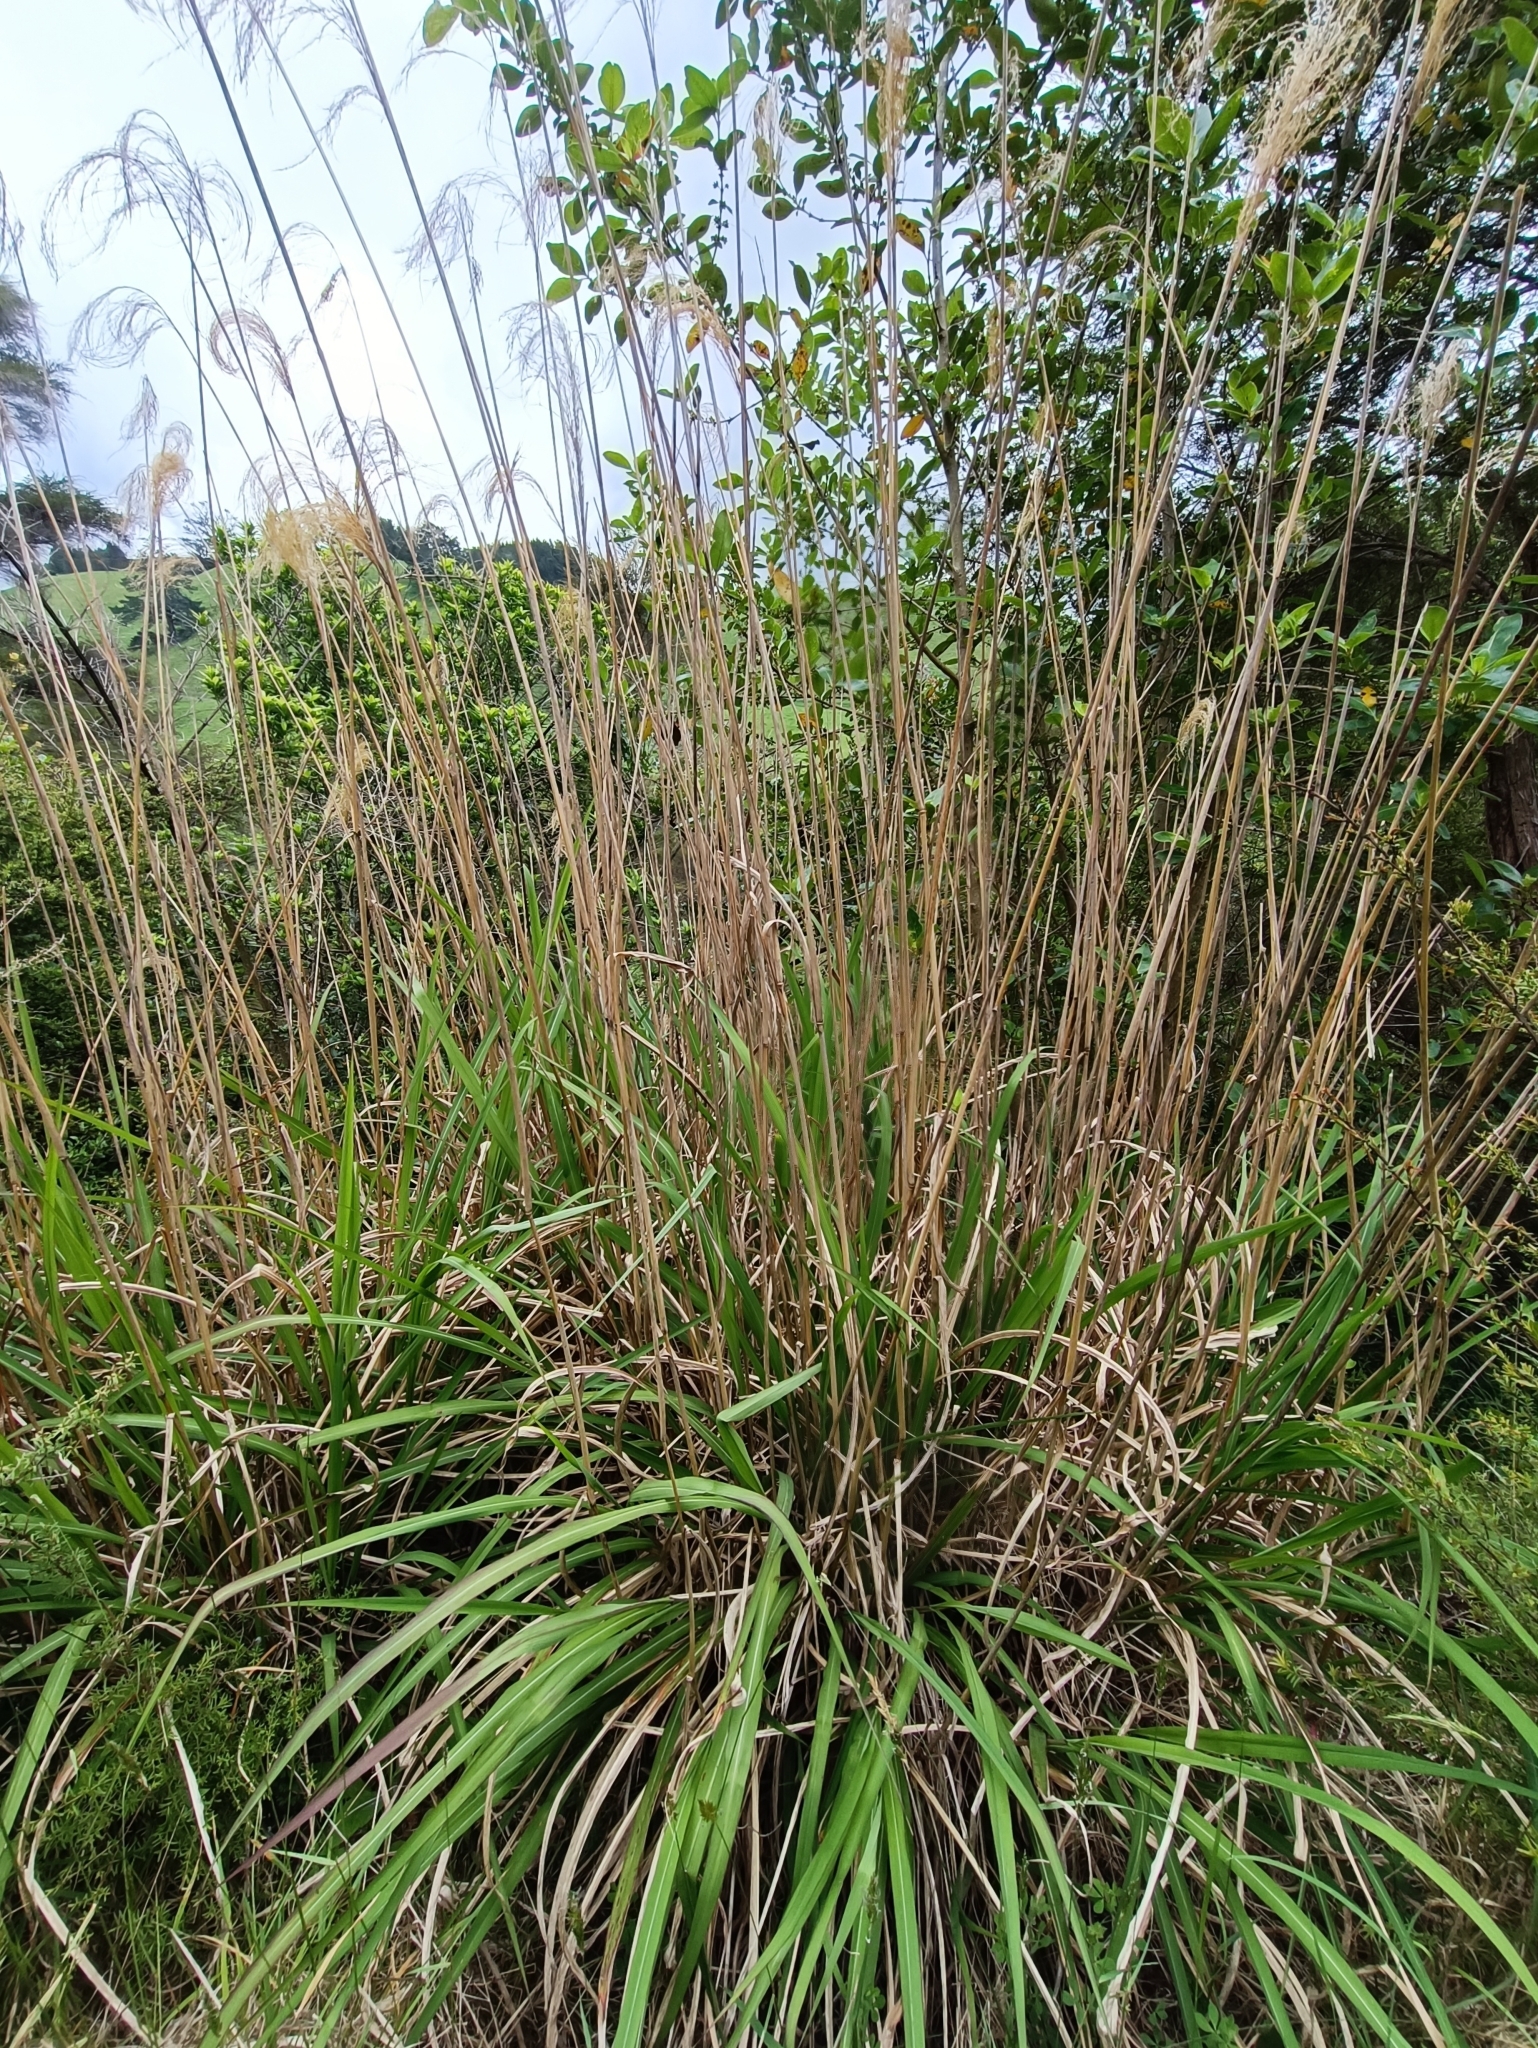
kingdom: Plantae
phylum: Tracheophyta
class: Liliopsida
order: Poales
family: Poaceae
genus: Miscanthus
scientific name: Miscanthus nepalensis
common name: Nepal silver grass
